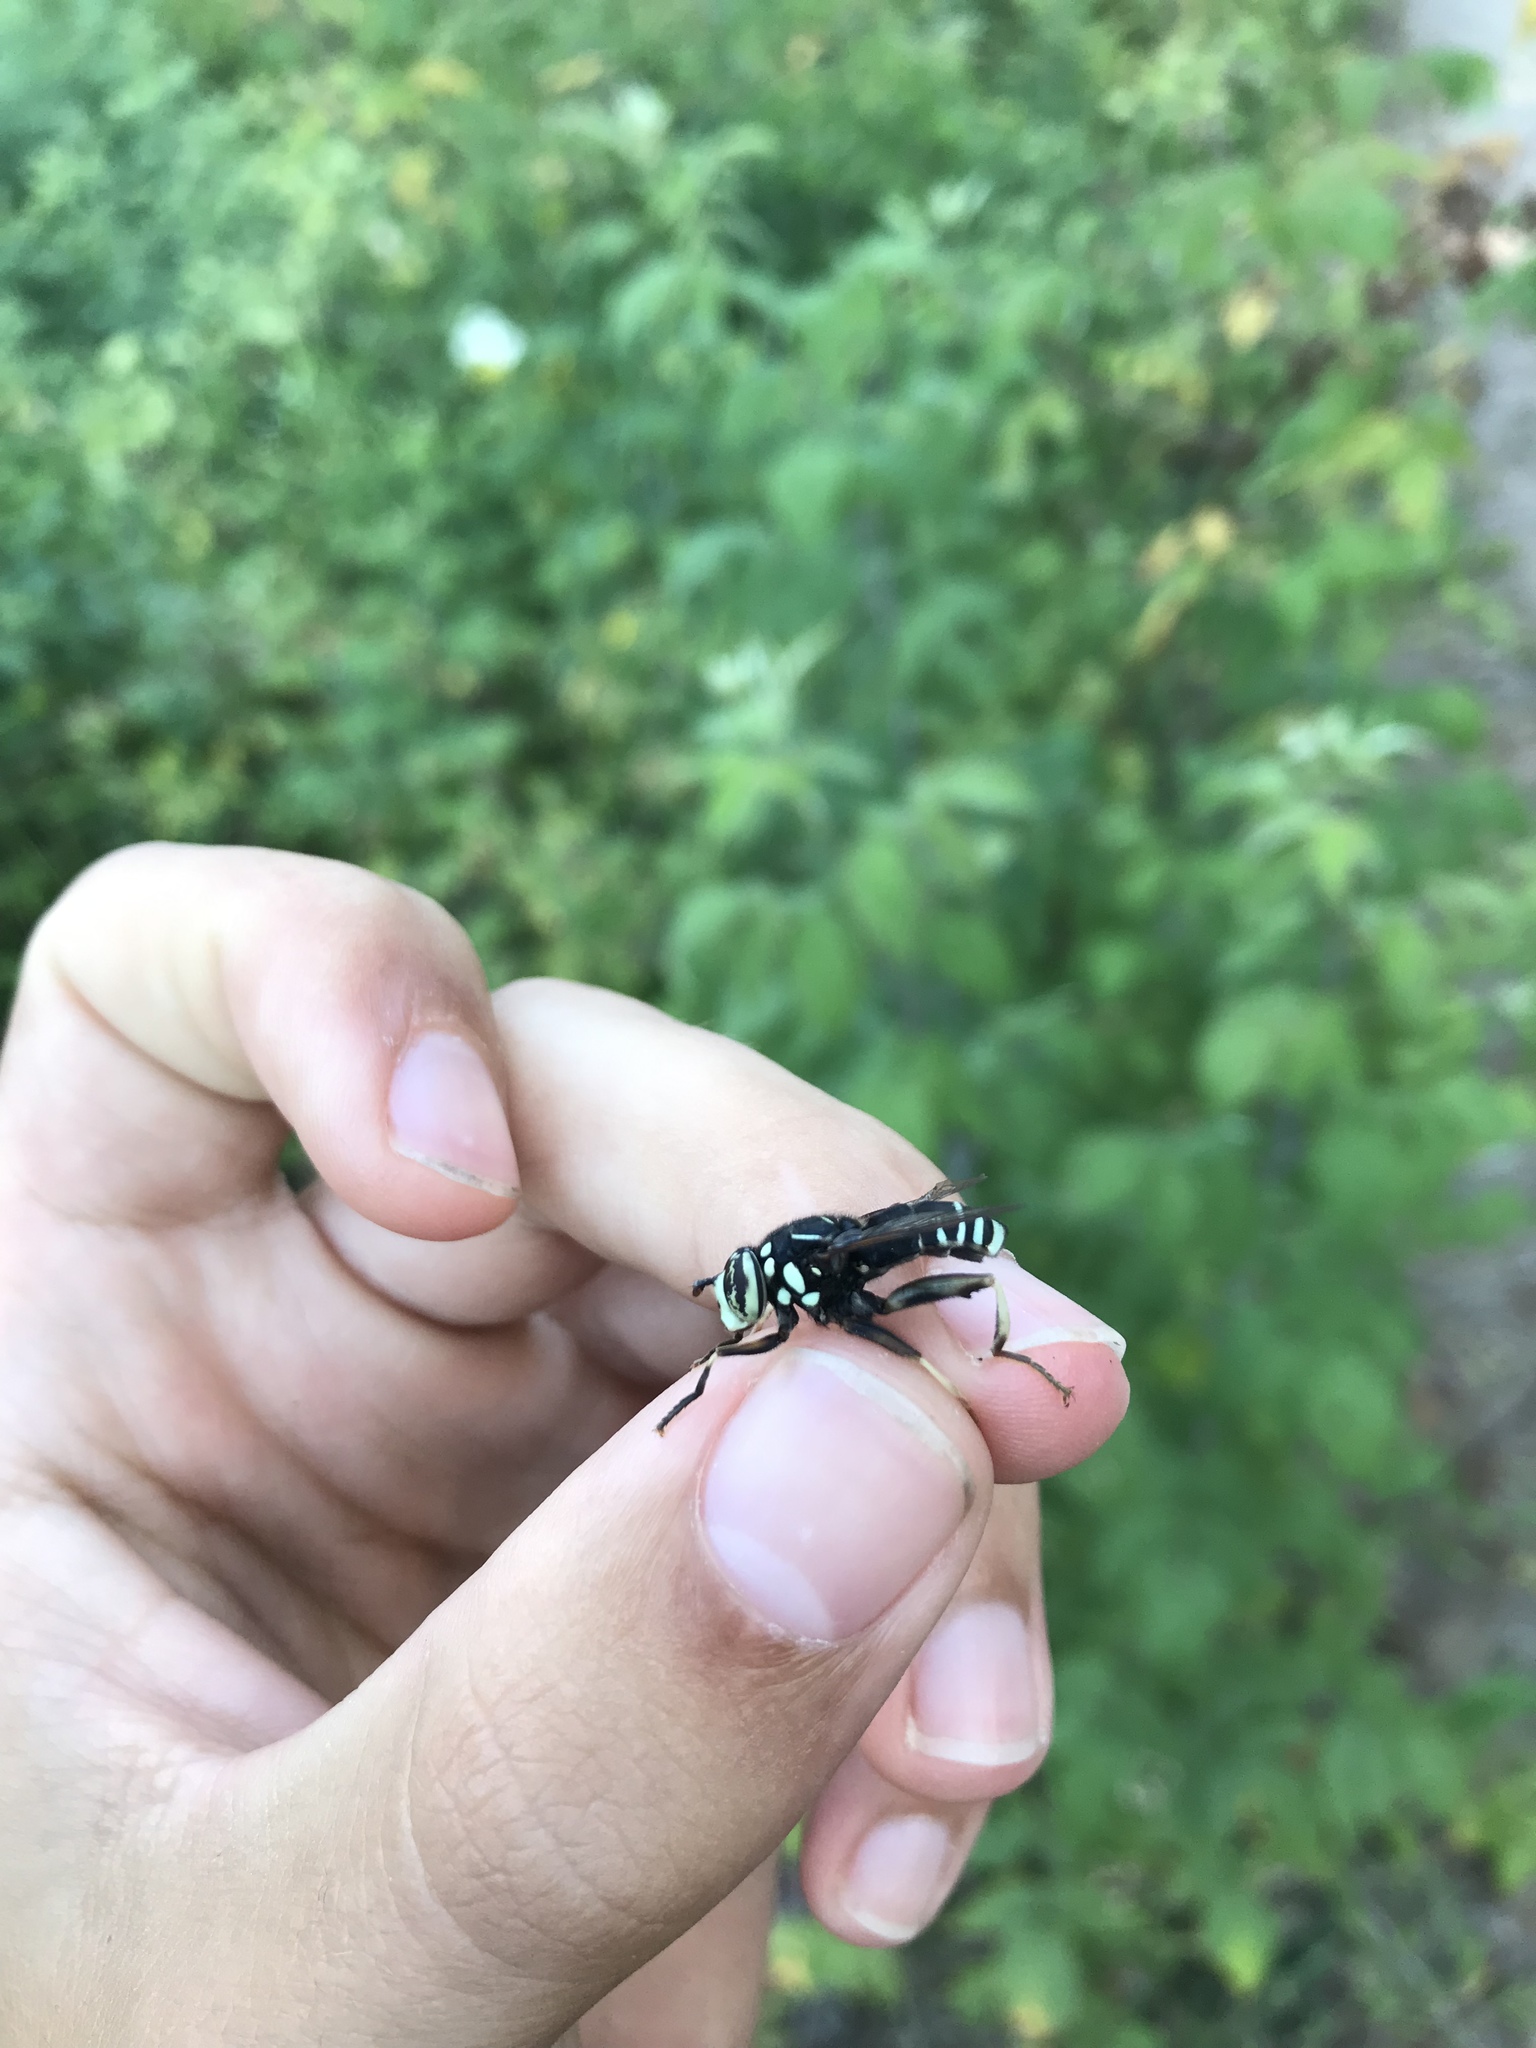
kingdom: Animalia
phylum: Arthropoda
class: Insecta
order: Diptera
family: Syrphidae
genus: Spilomyia
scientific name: Spilomyia fusca
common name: Bald-faced hornet fly
